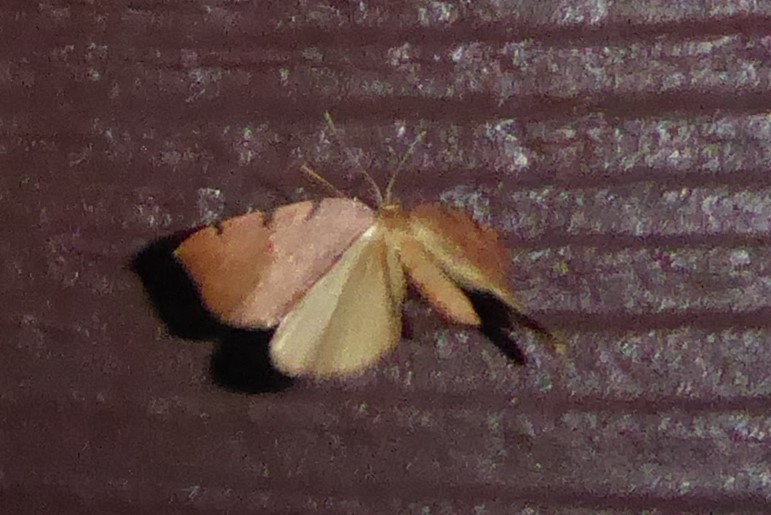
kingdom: Animalia
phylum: Arthropoda
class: Insecta
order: Lepidoptera
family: Geometridae
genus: Sestra
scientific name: Sestra humeraria
